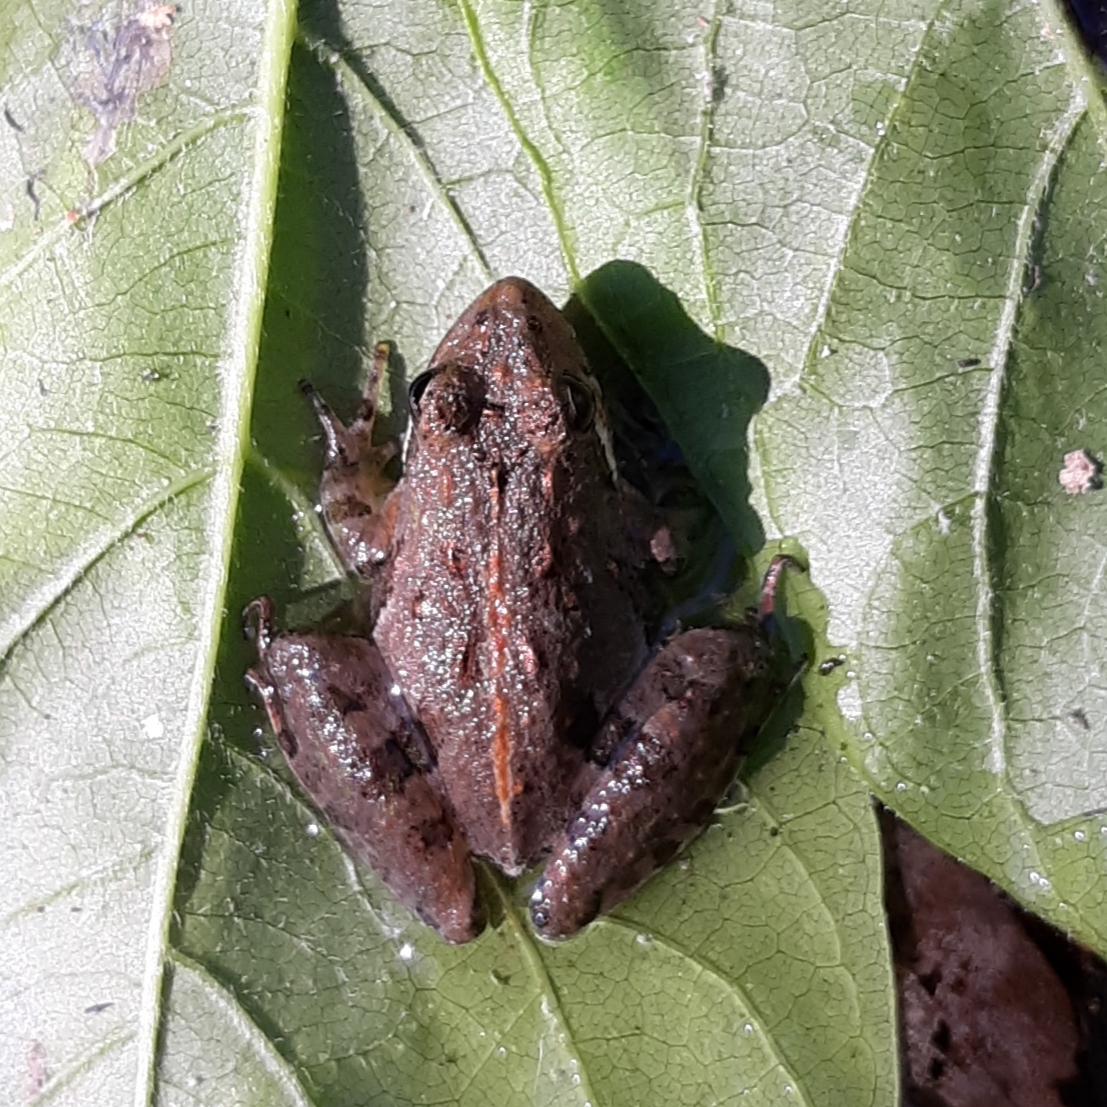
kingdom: Animalia
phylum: Chordata
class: Amphibia
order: Anura
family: Hylidae
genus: Acris
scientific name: Acris gryllus
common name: Southern cricket frog
